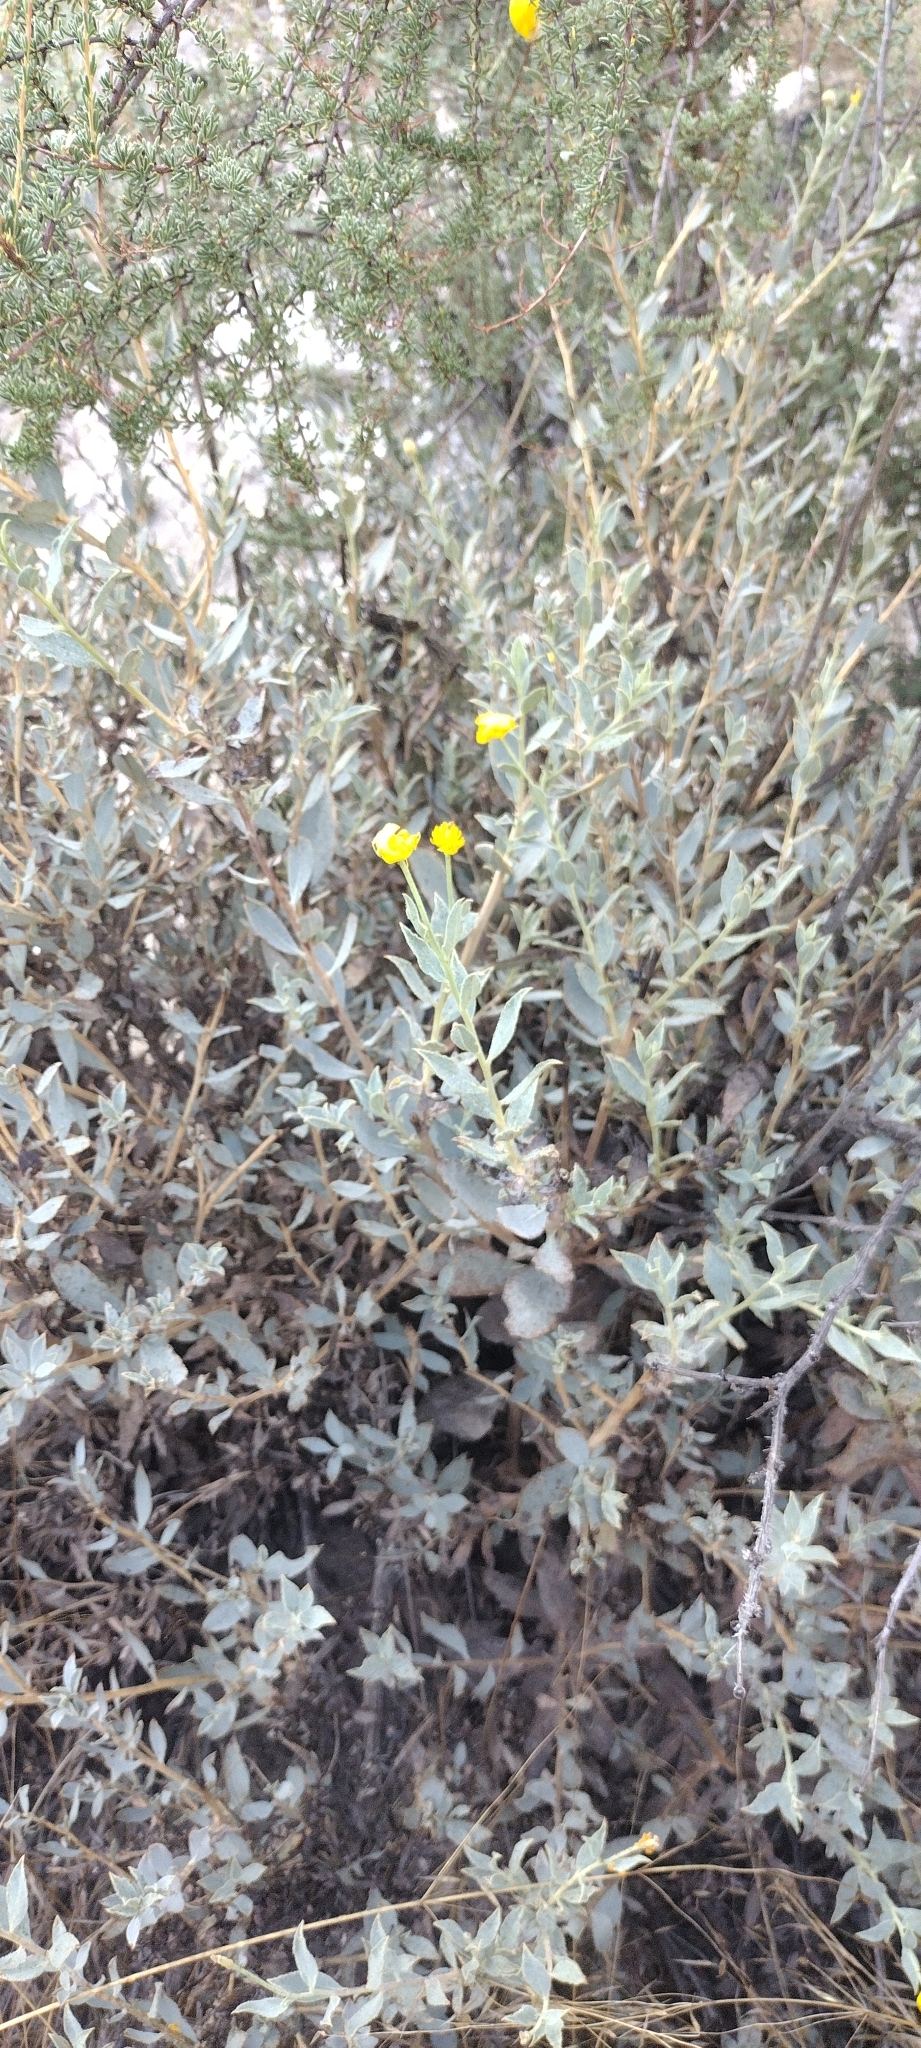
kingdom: Plantae
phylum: Tracheophyta
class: Magnoliopsida
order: Ranunculales
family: Papaveraceae
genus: Dendromecon
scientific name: Dendromecon rigida
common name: Tree poppy
